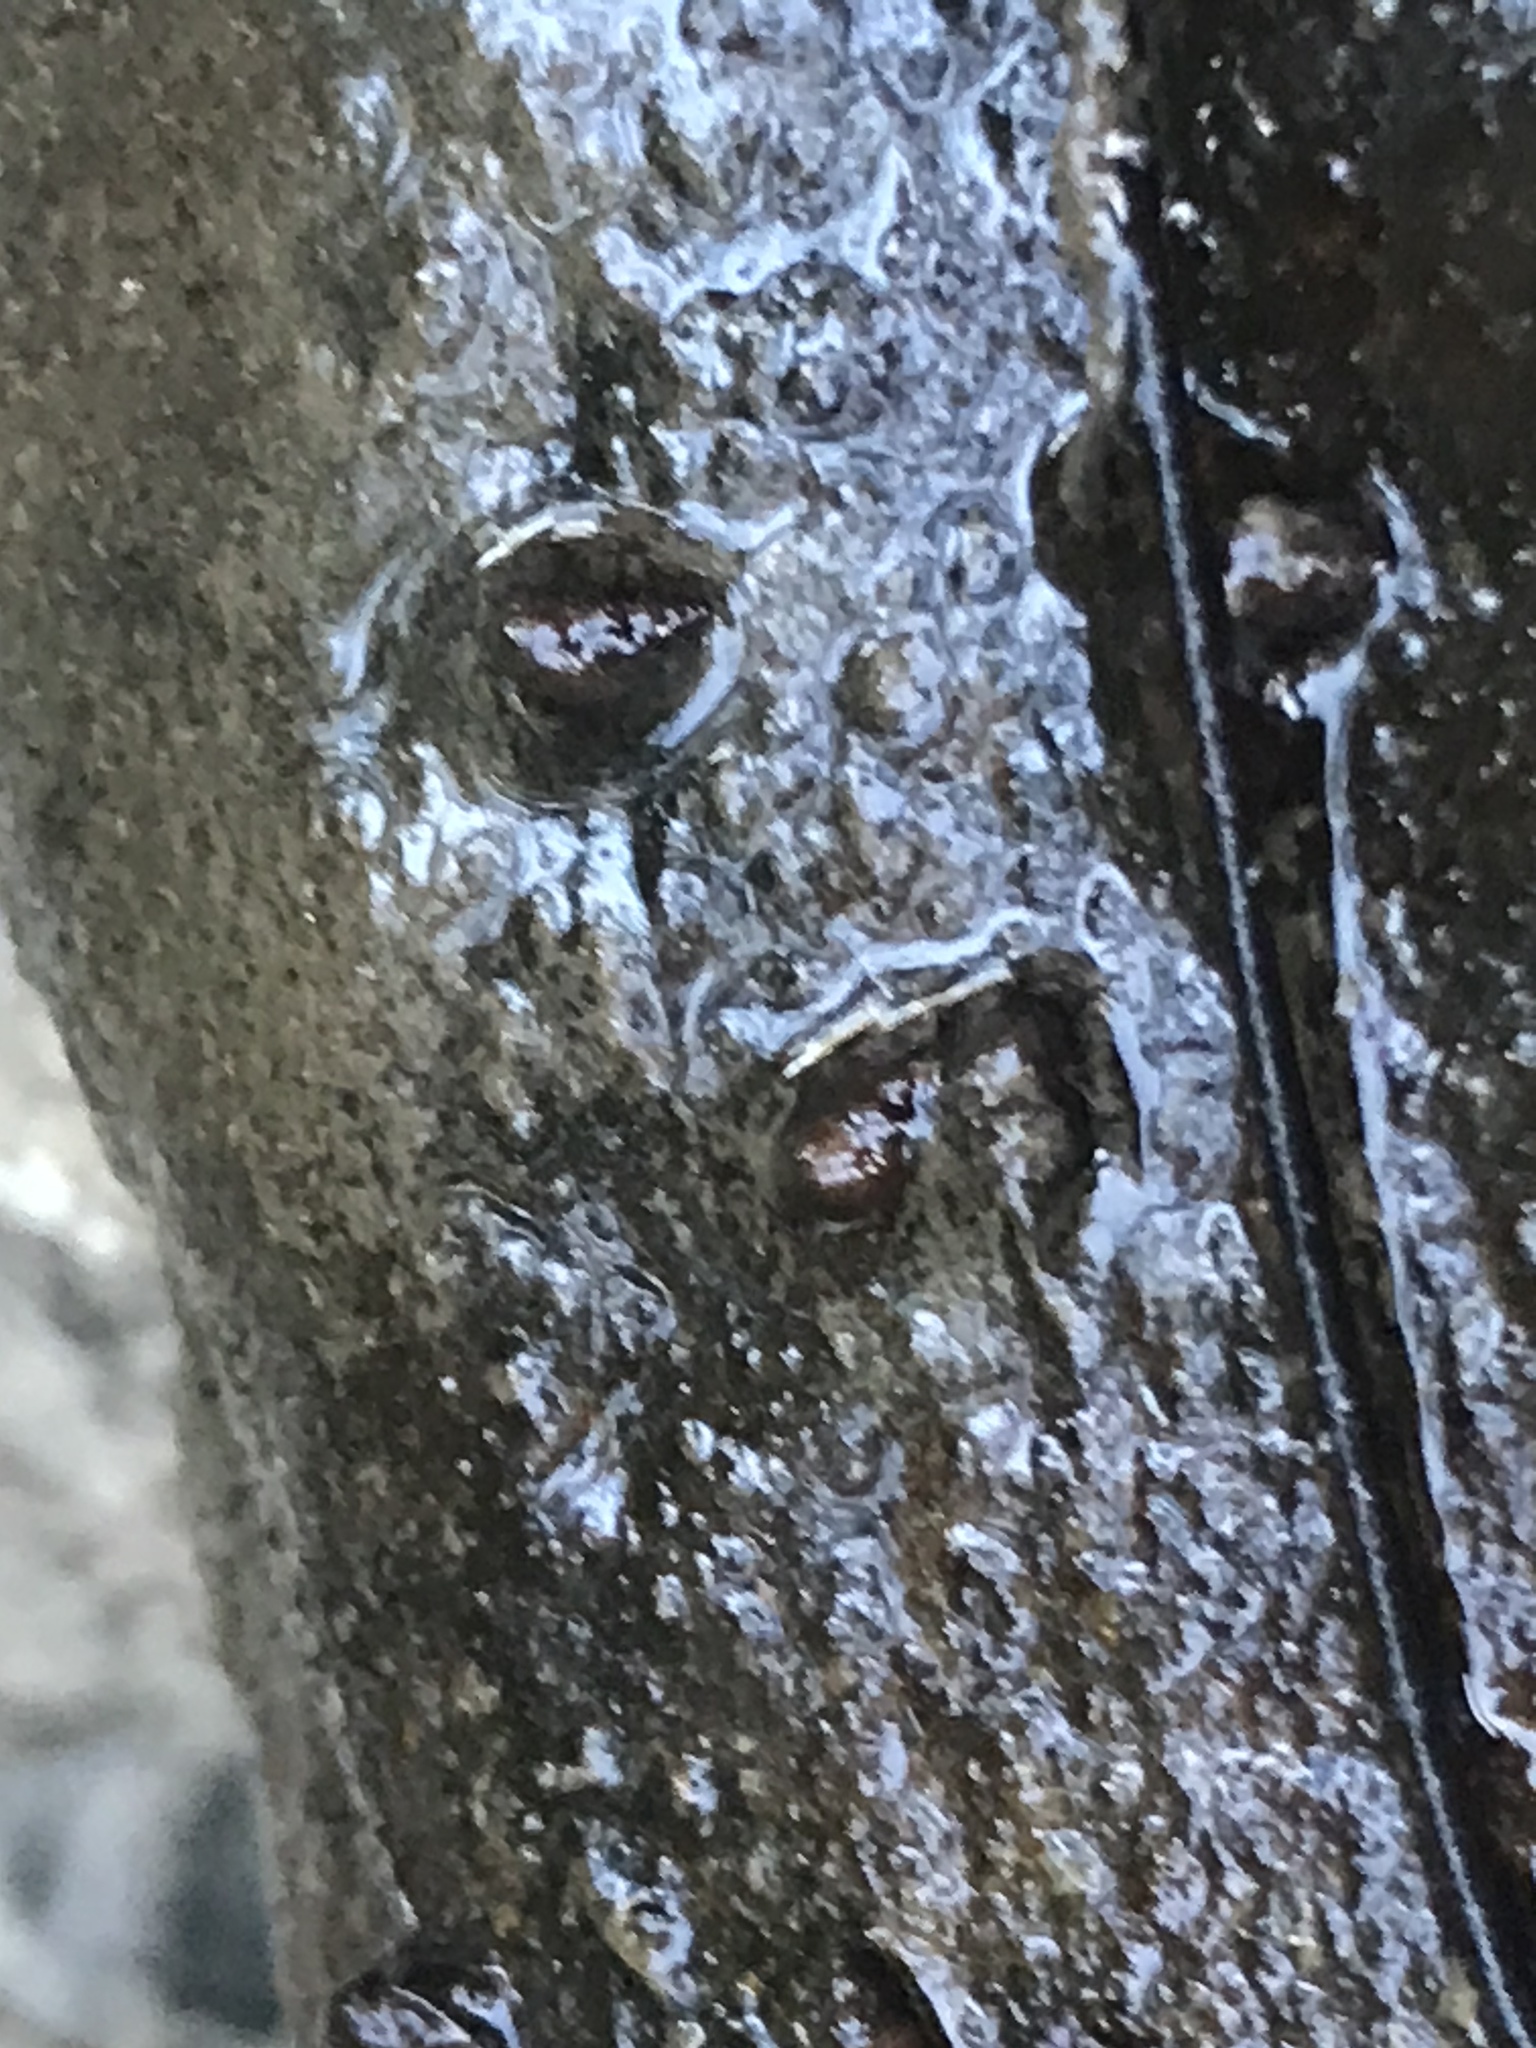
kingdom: Animalia
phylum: Mollusca
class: Gastropoda
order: Littorinimorpha
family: Tateidae
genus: Potamopyrgus
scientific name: Potamopyrgus antipodarum
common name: Jenkins' spire snail
